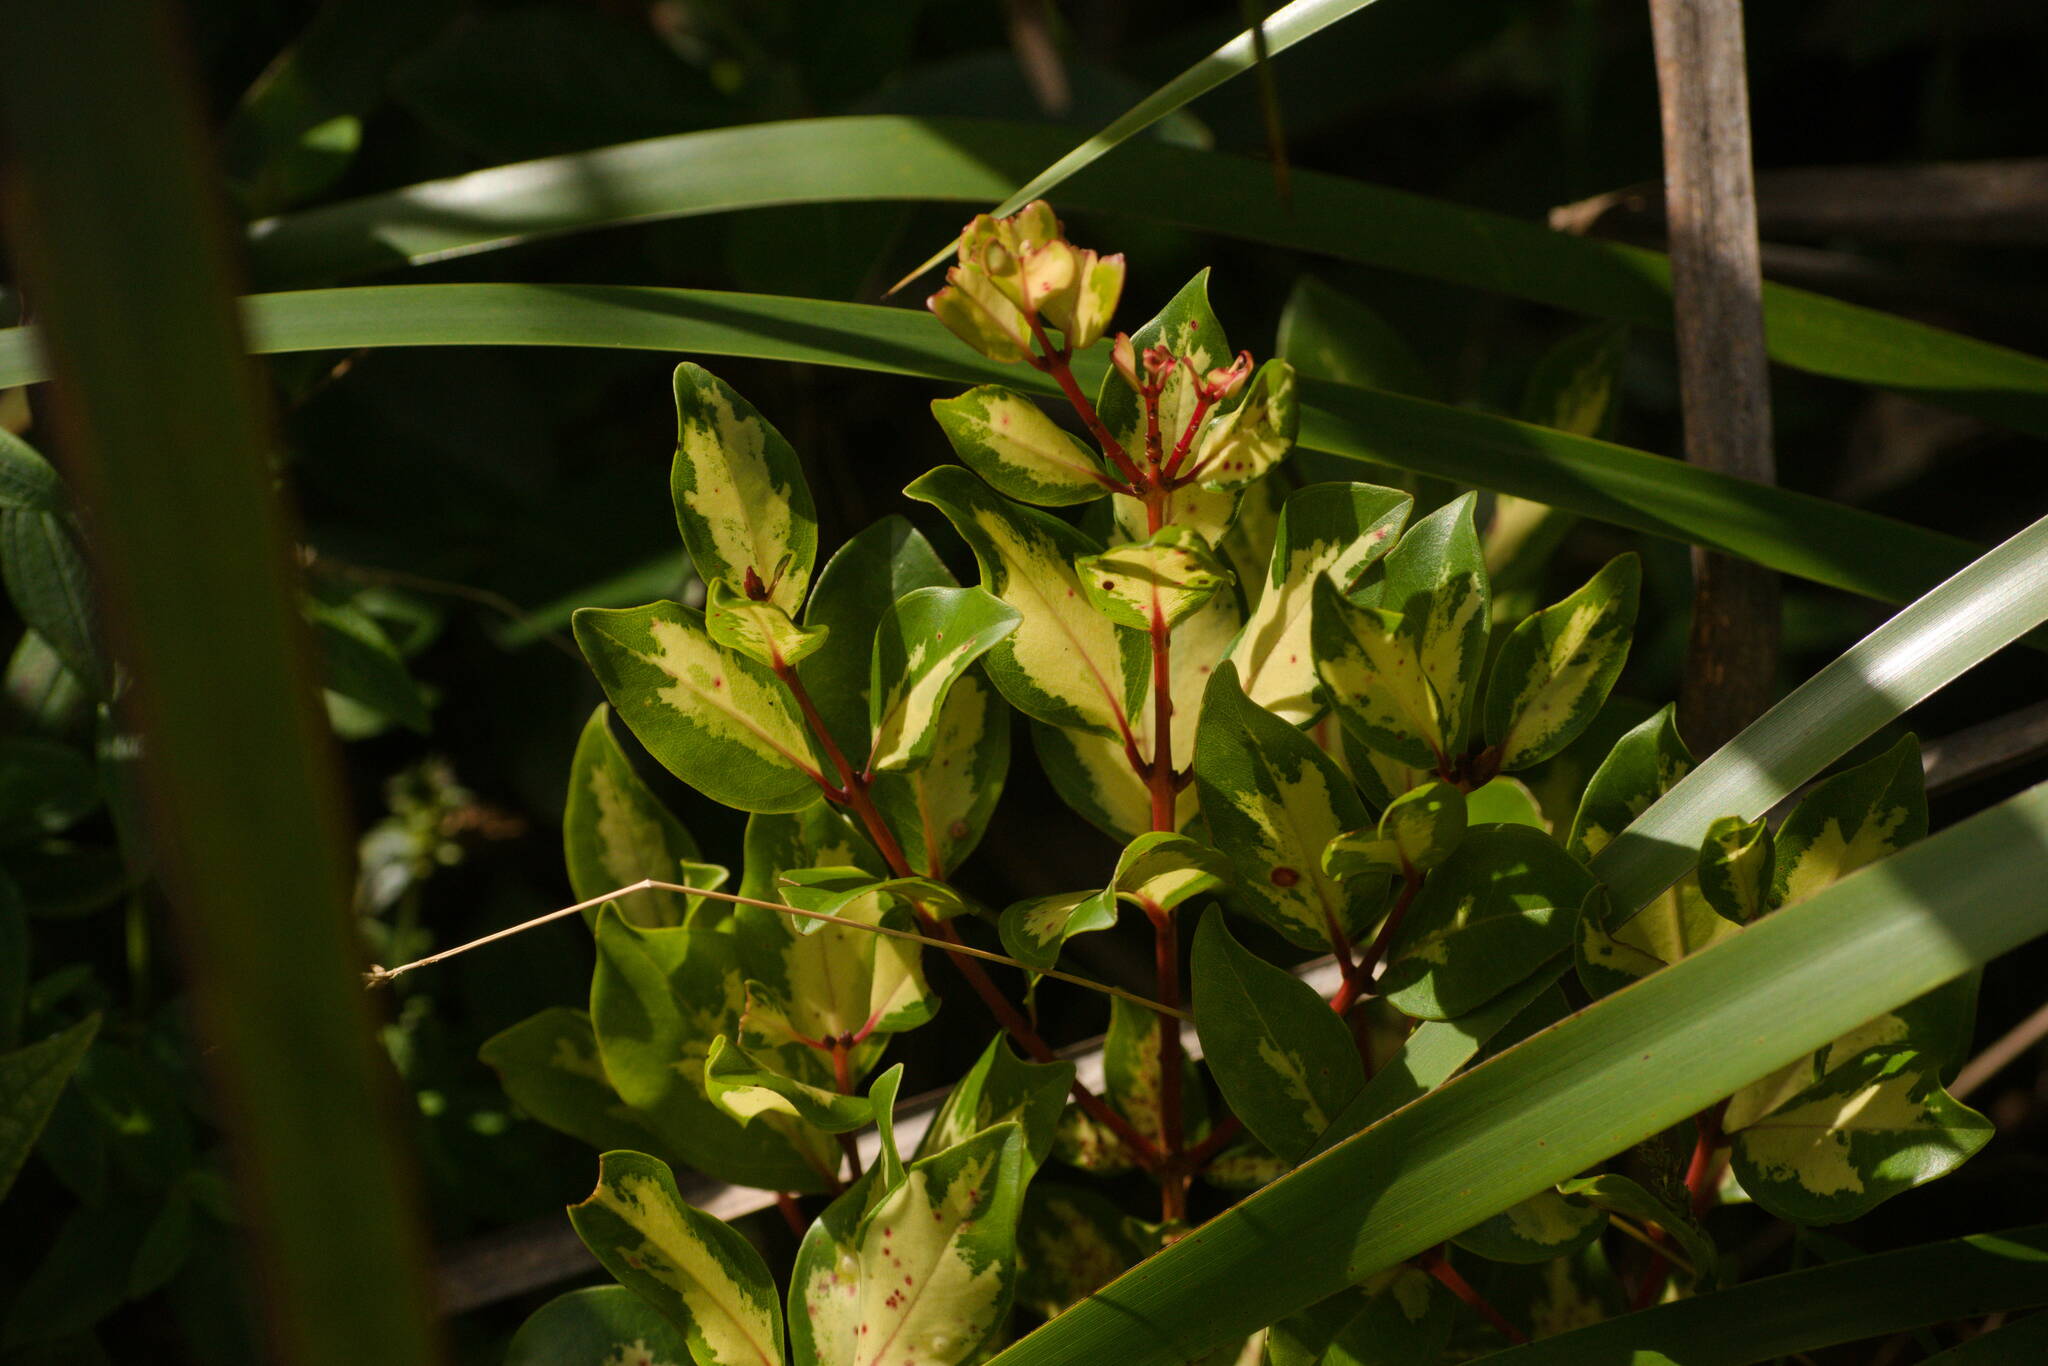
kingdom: Plantae
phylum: Tracheophyta
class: Magnoliopsida
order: Myrtales
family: Myrtaceae
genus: Metrosideros
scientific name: Metrosideros polymorpha
